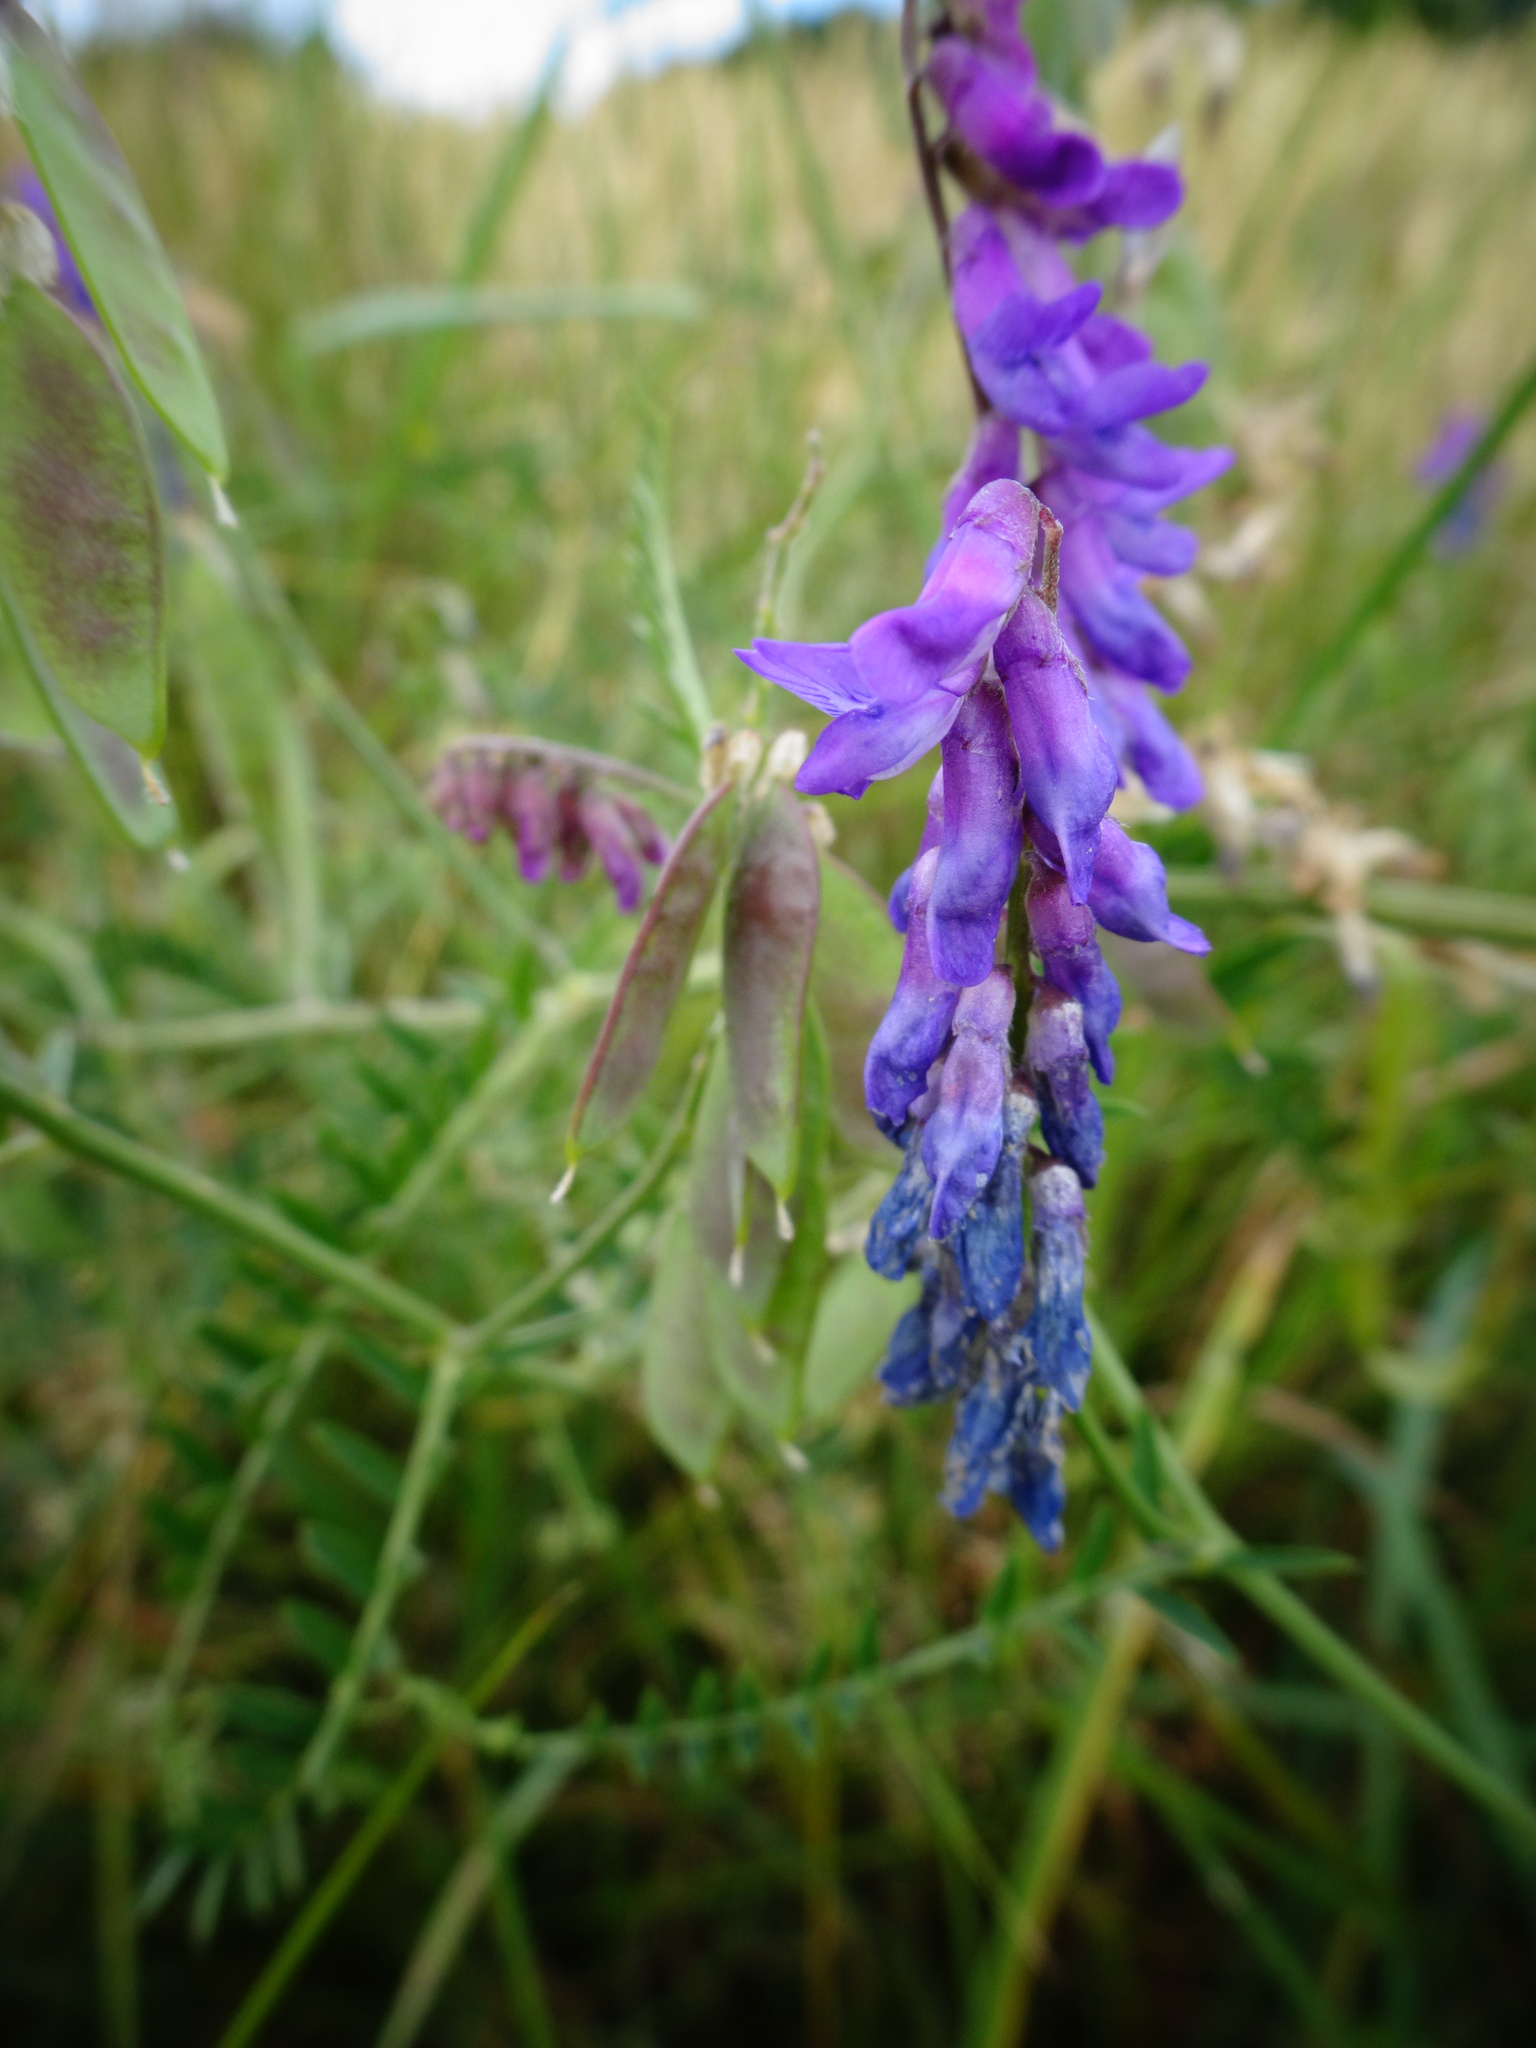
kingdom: Plantae
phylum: Tracheophyta
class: Magnoliopsida
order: Fabales
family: Fabaceae
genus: Vicia
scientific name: Vicia cracca
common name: Bird vetch
